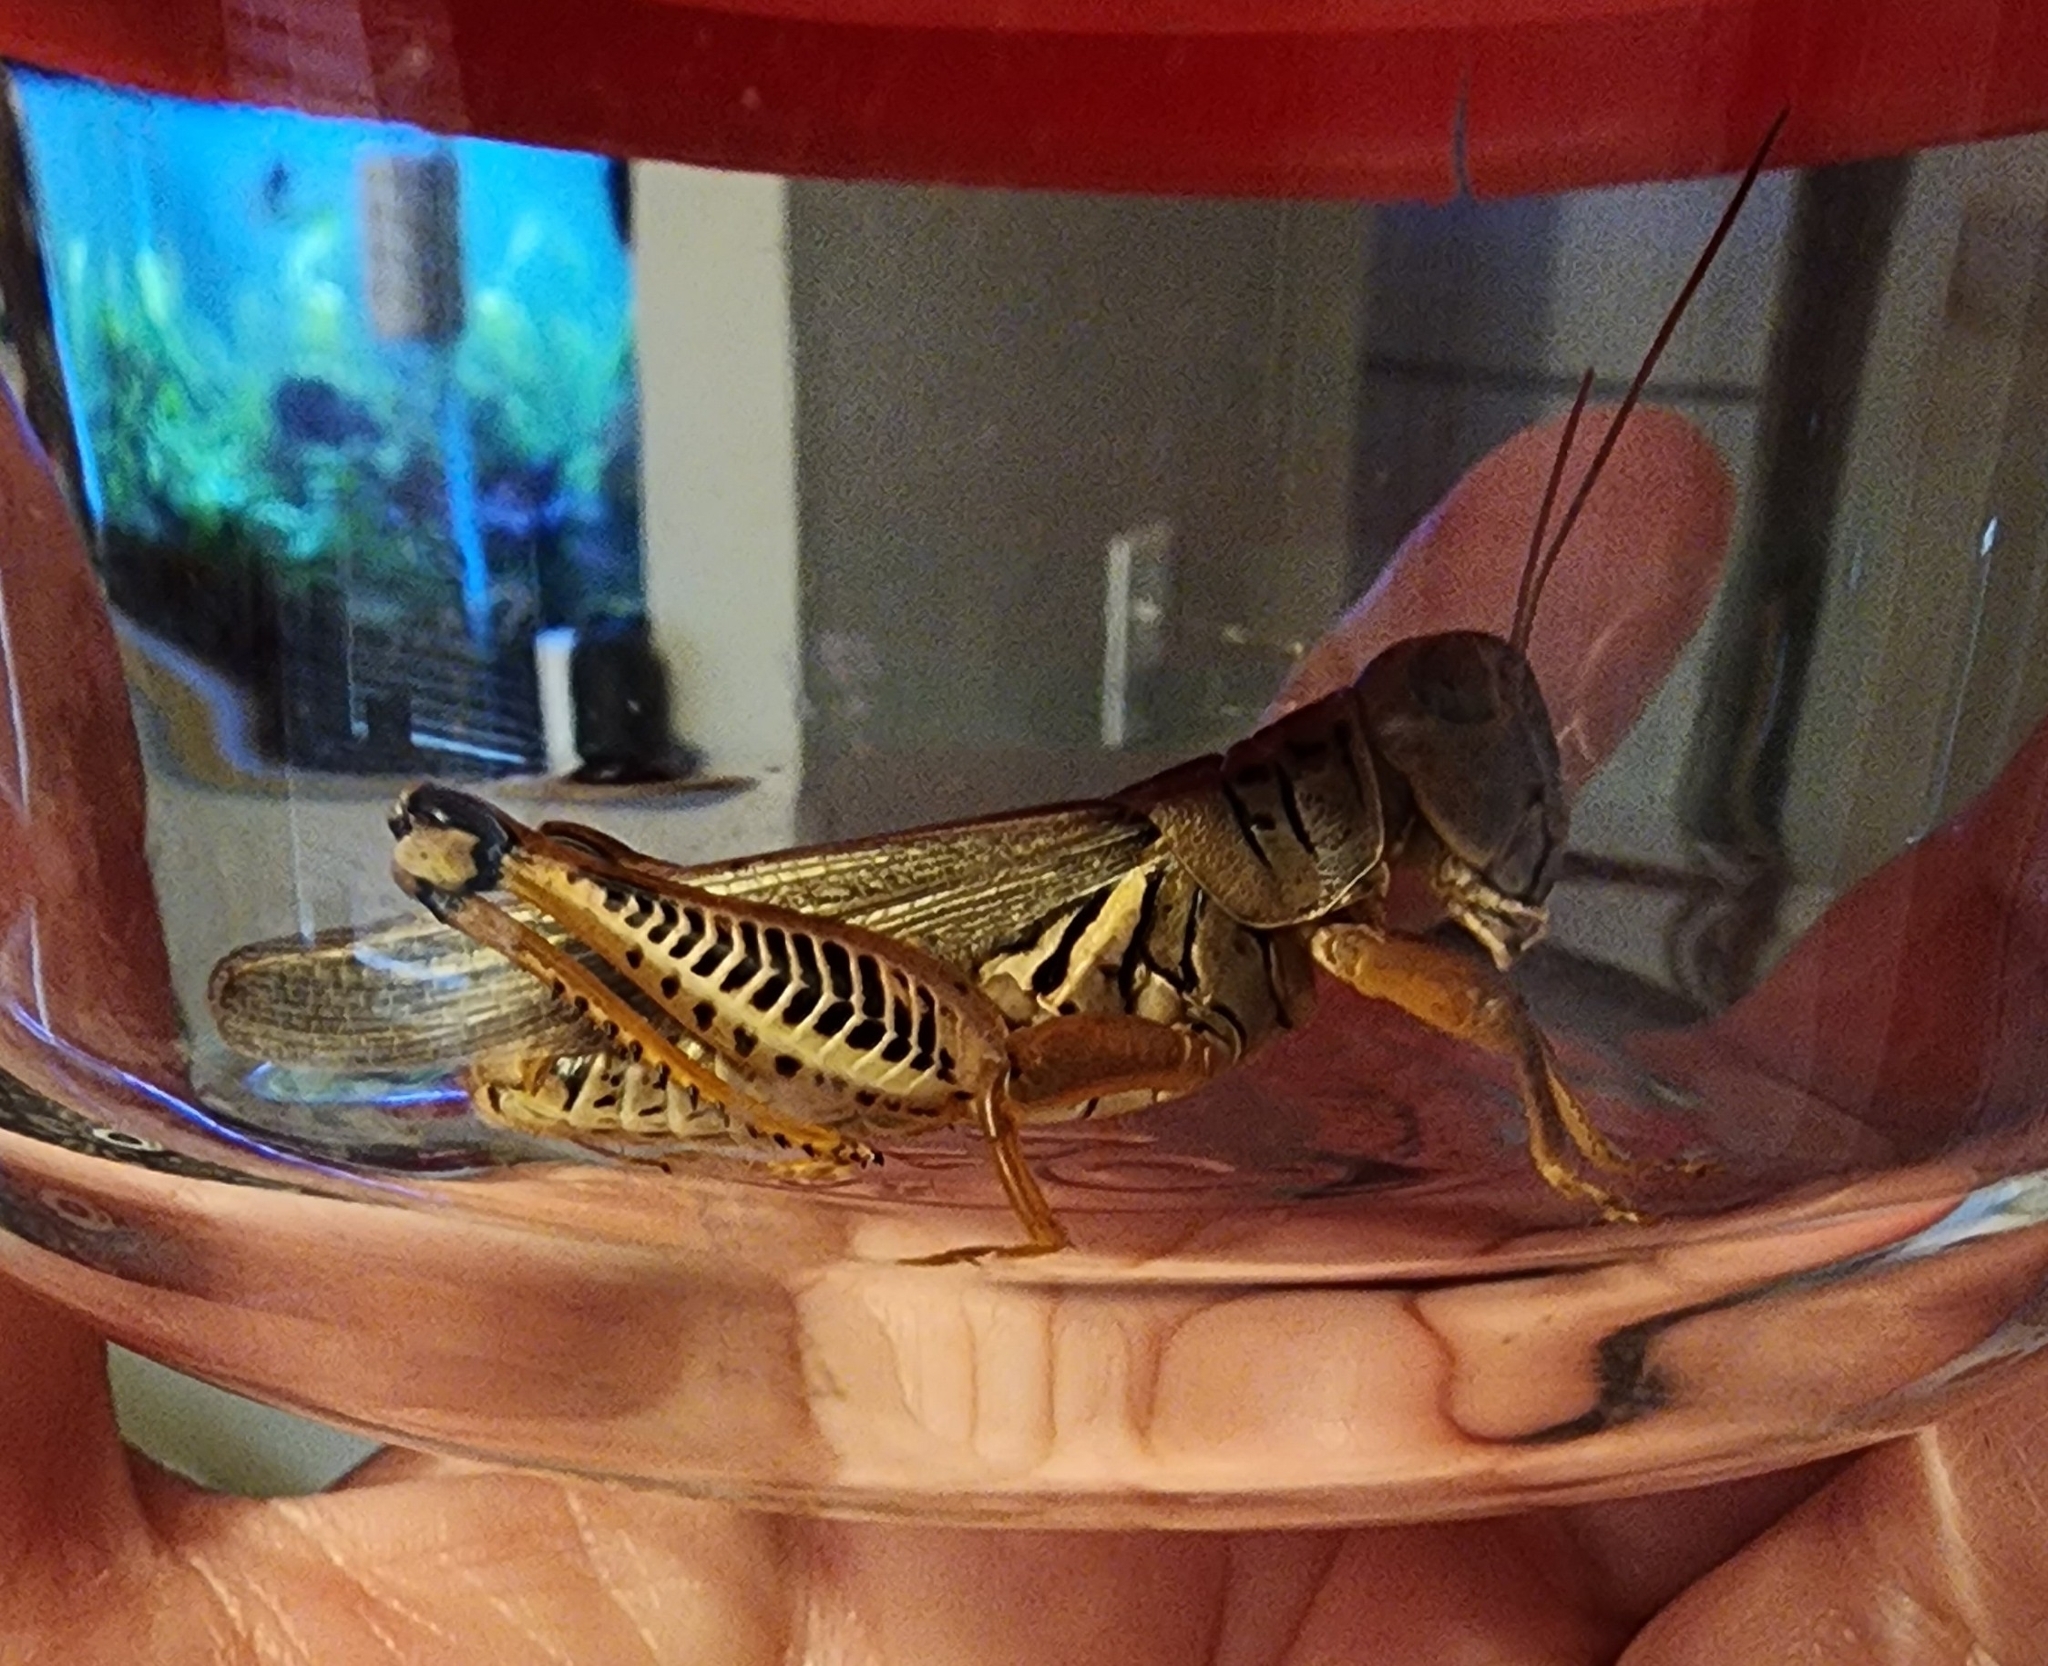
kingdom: Animalia
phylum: Arthropoda
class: Insecta
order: Orthoptera
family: Acrididae
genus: Melanoplus
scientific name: Melanoplus differentialis
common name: Differential grasshopper
